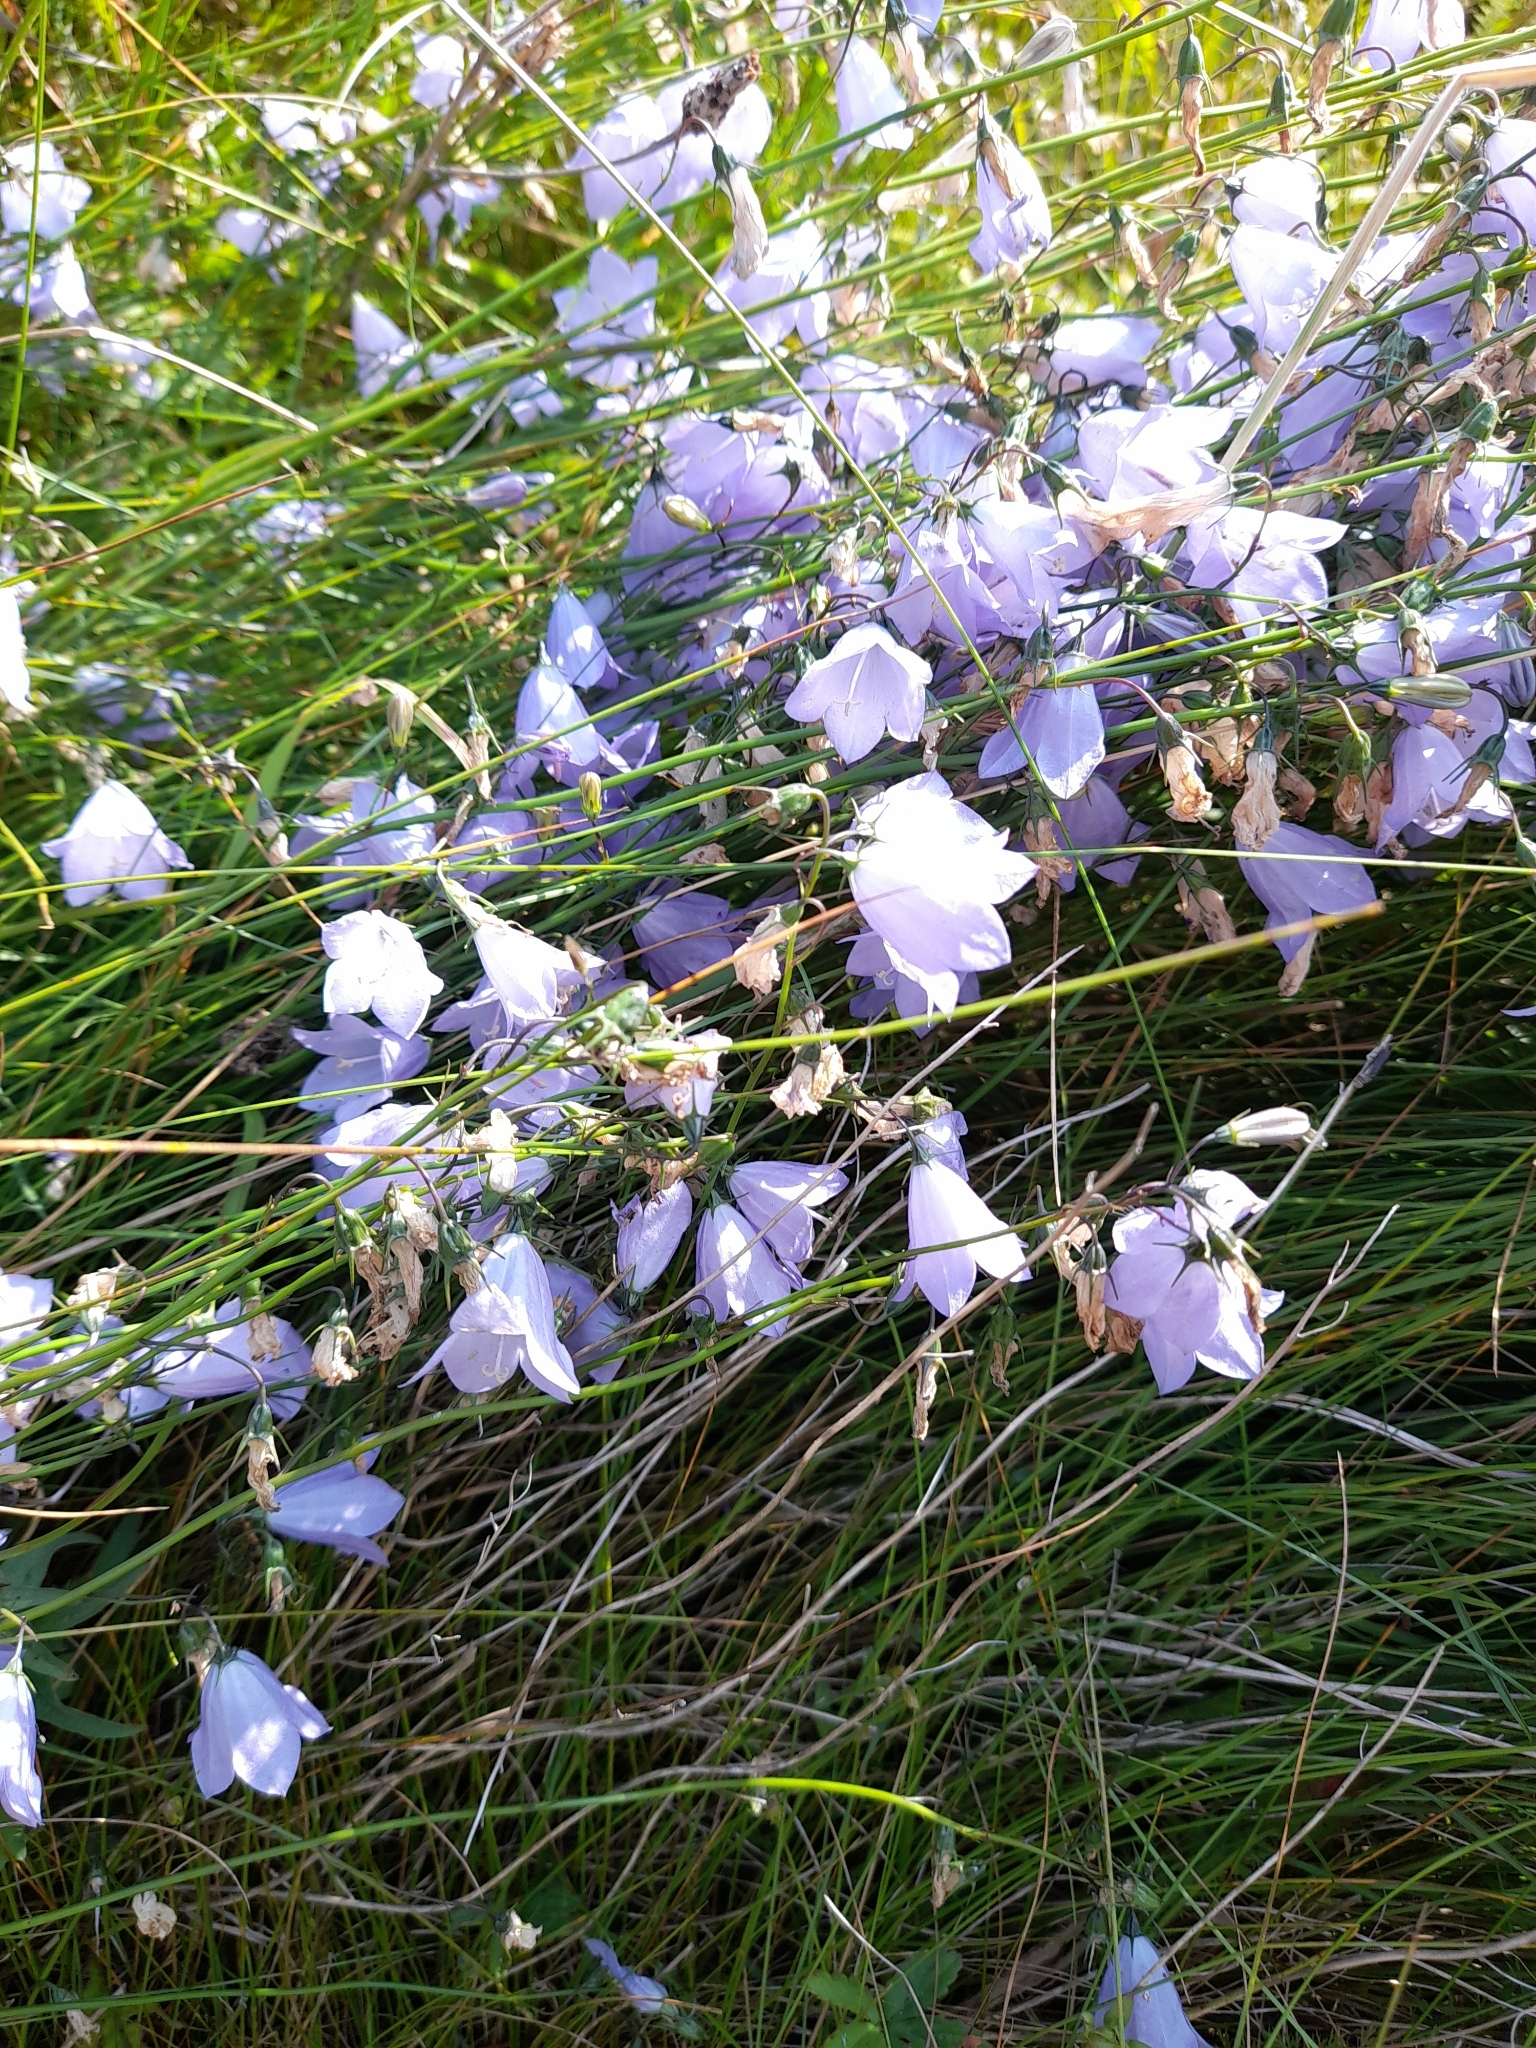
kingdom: Plantae
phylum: Tracheophyta
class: Magnoliopsida
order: Asterales
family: Campanulaceae
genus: Campanula
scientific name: Campanula rotundifolia
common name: Harebell
